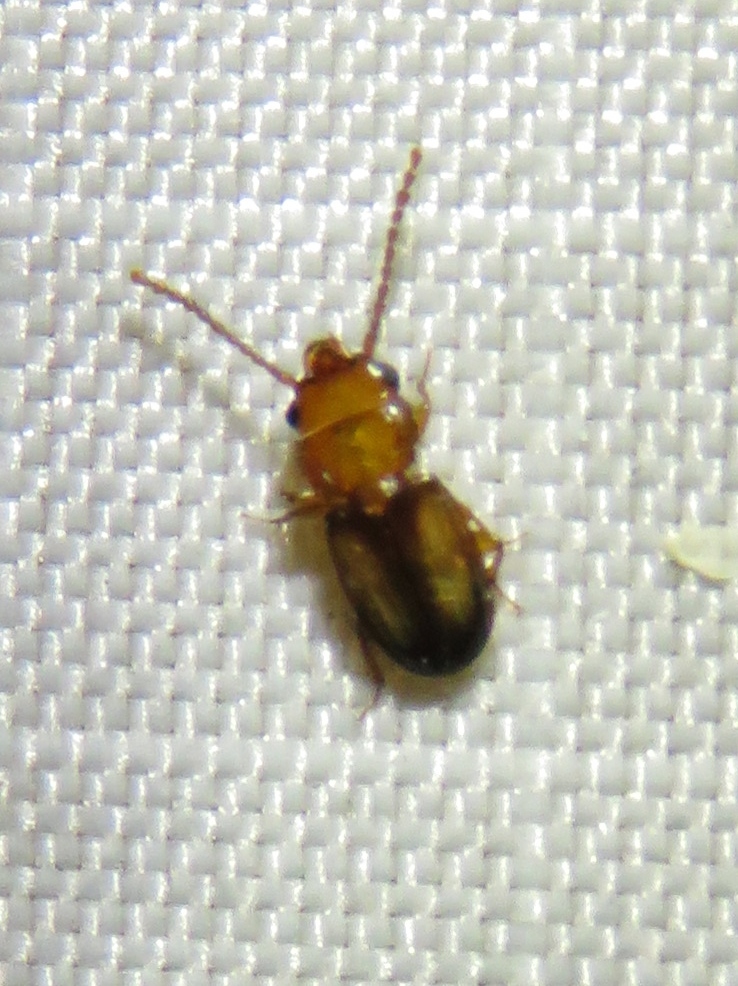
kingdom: Animalia
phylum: Arthropoda
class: Insecta
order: Coleoptera
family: Laemophloeidae
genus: Laemophloeus
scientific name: Laemophloeus terminalis
